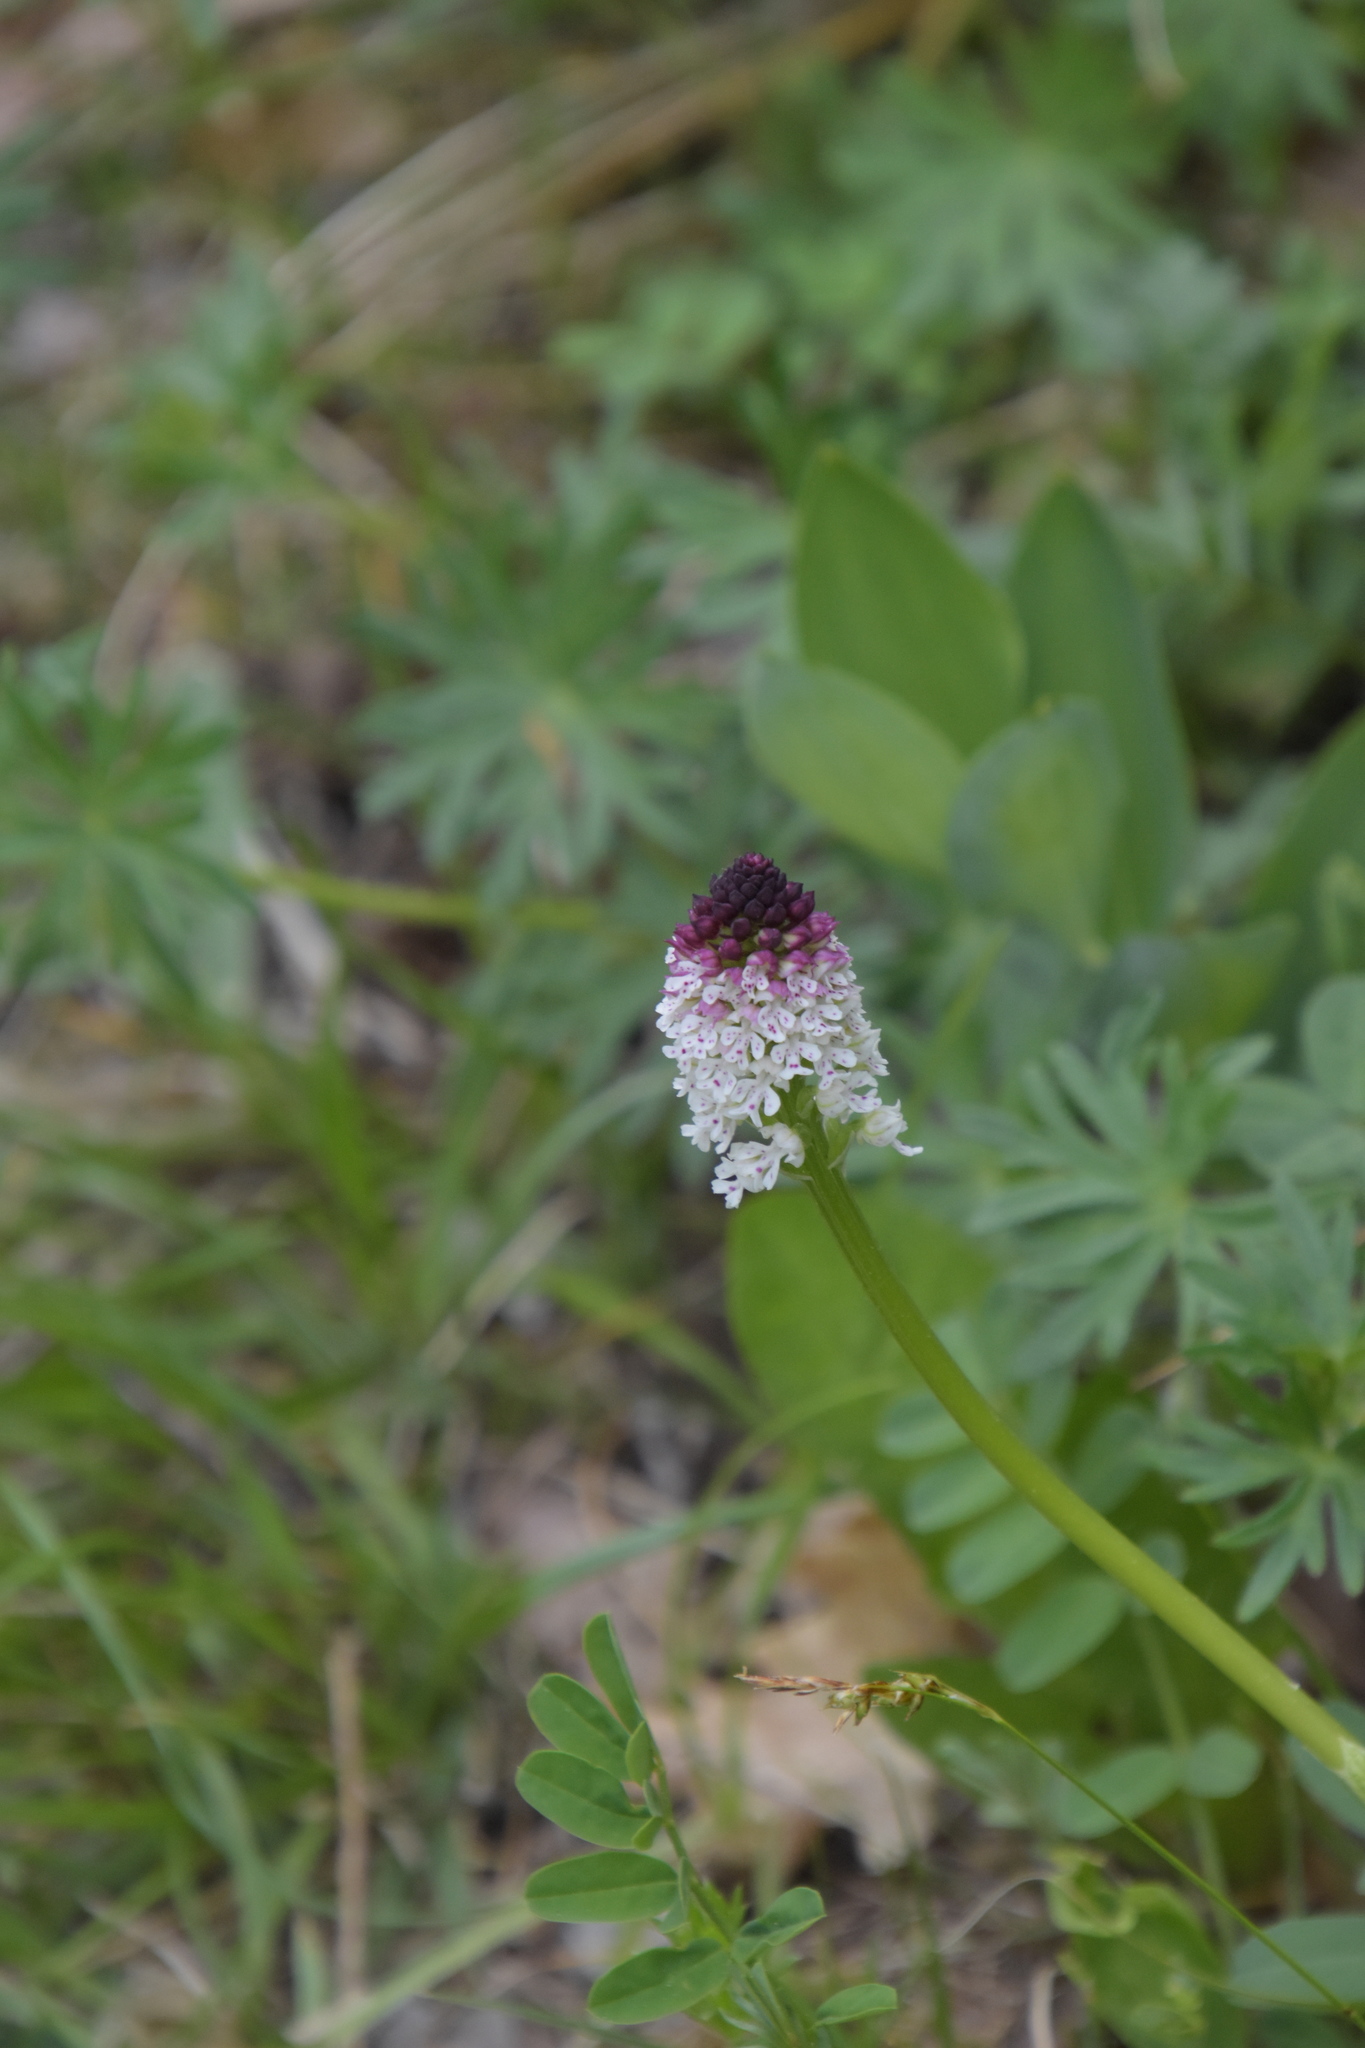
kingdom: Plantae
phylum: Tracheophyta
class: Liliopsida
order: Asparagales
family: Orchidaceae
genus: Neotinea
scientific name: Neotinea ustulata
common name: Burnt orchid
